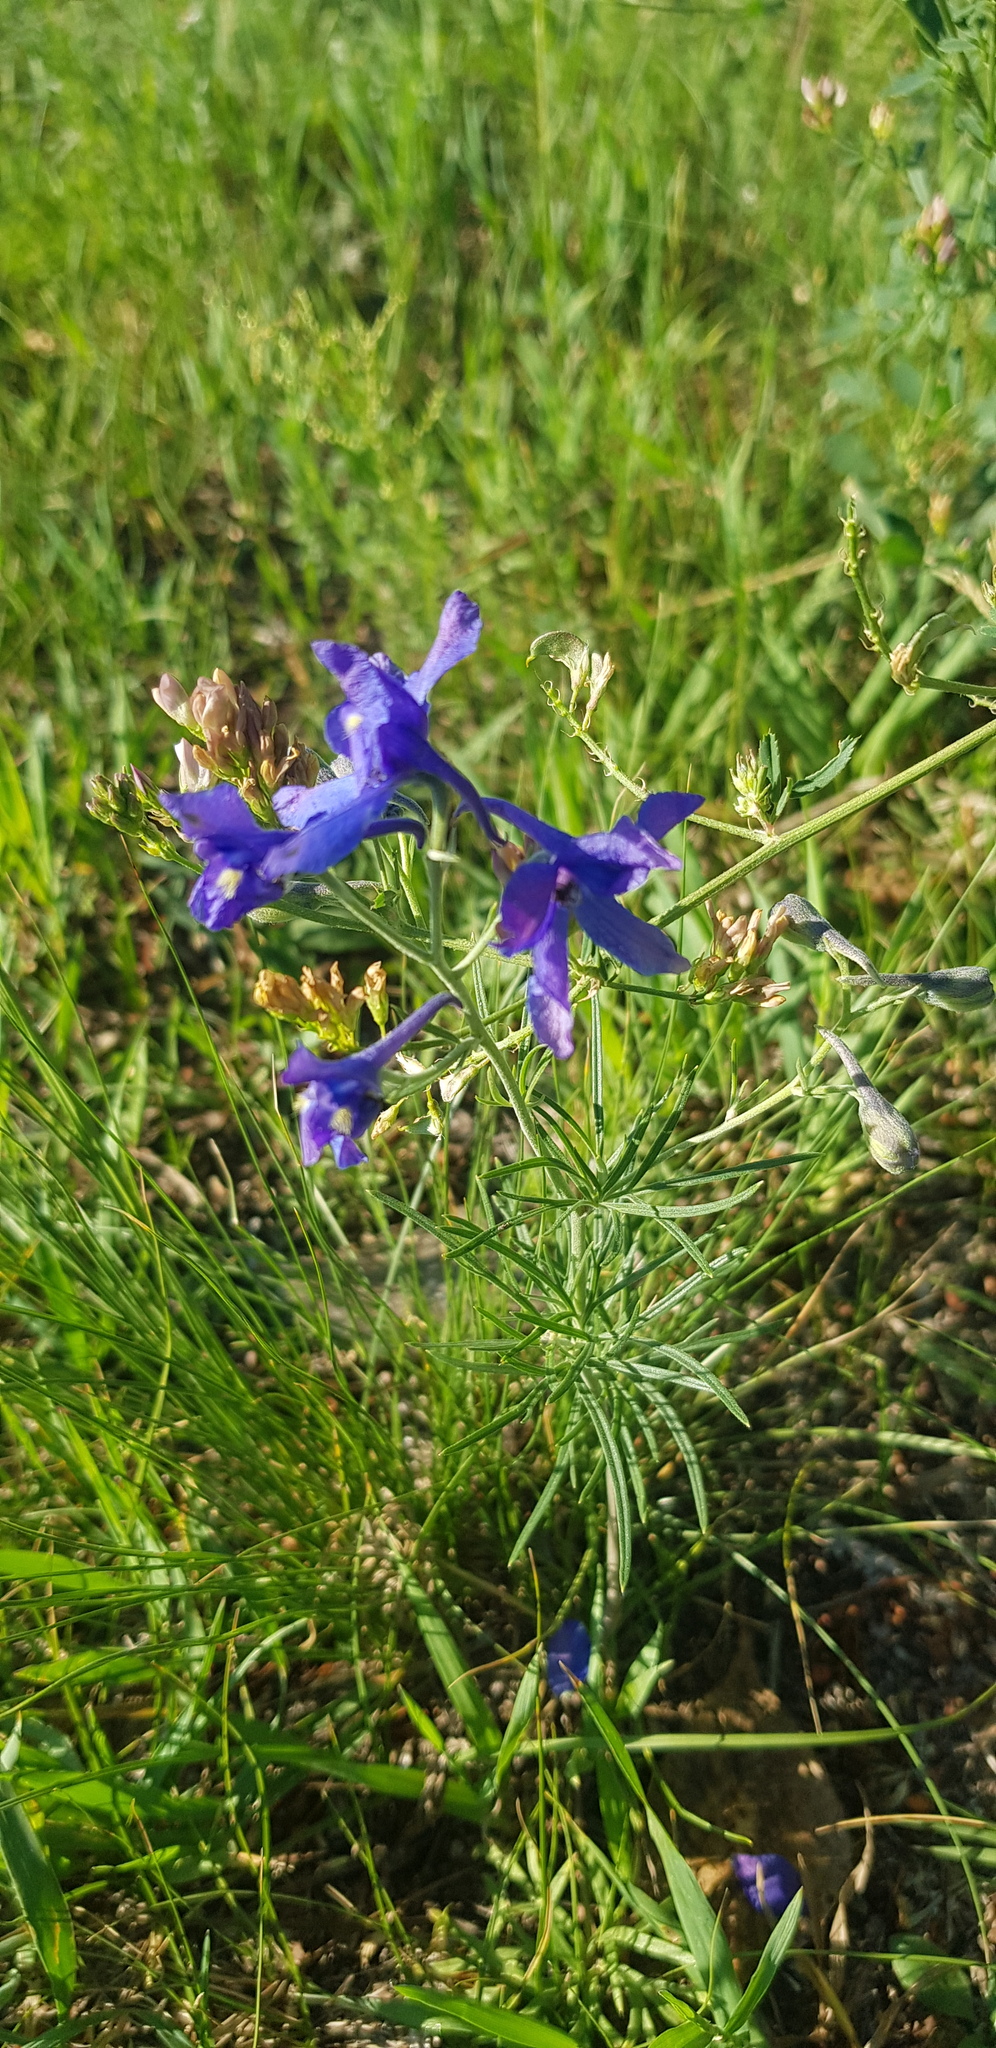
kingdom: Plantae
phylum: Tracheophyta
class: Magnoliopsida
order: Ranunculales
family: Ranunculaceae
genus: Delphinium
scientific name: Delphinium grandiflorum
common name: Siberian larkspur
